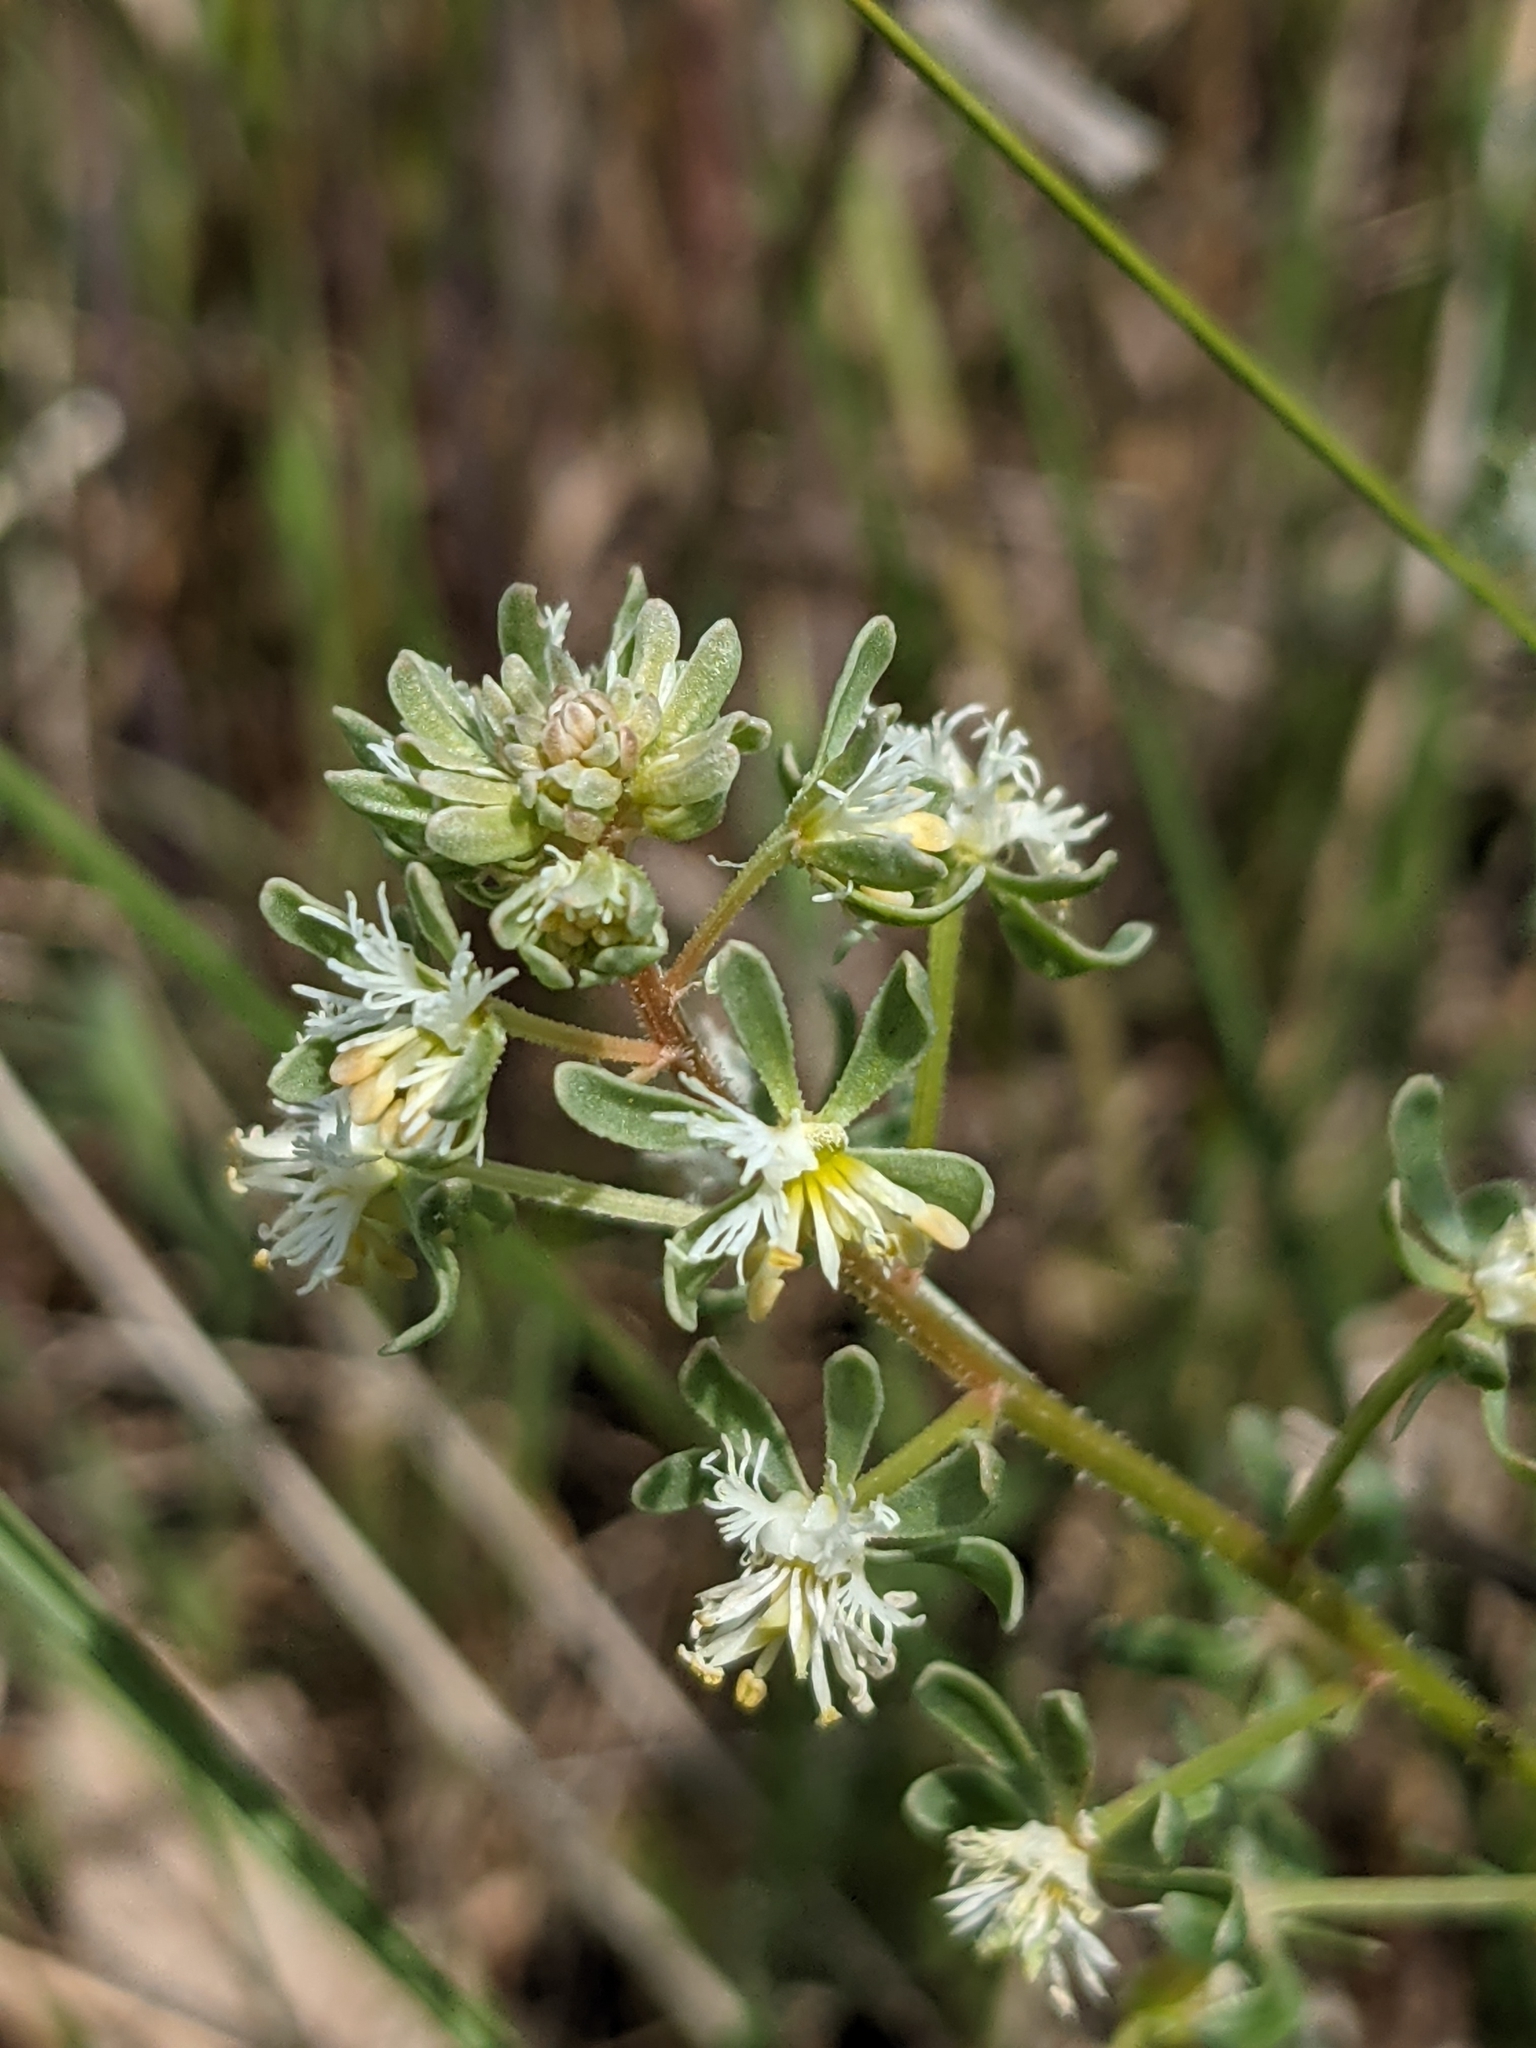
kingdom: Plantae
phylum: Tracheophyta
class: Magnoliopsida
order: Brassicales
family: Resedaceae
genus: Reseda
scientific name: Reseda phyteuma
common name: Corn mignonette
